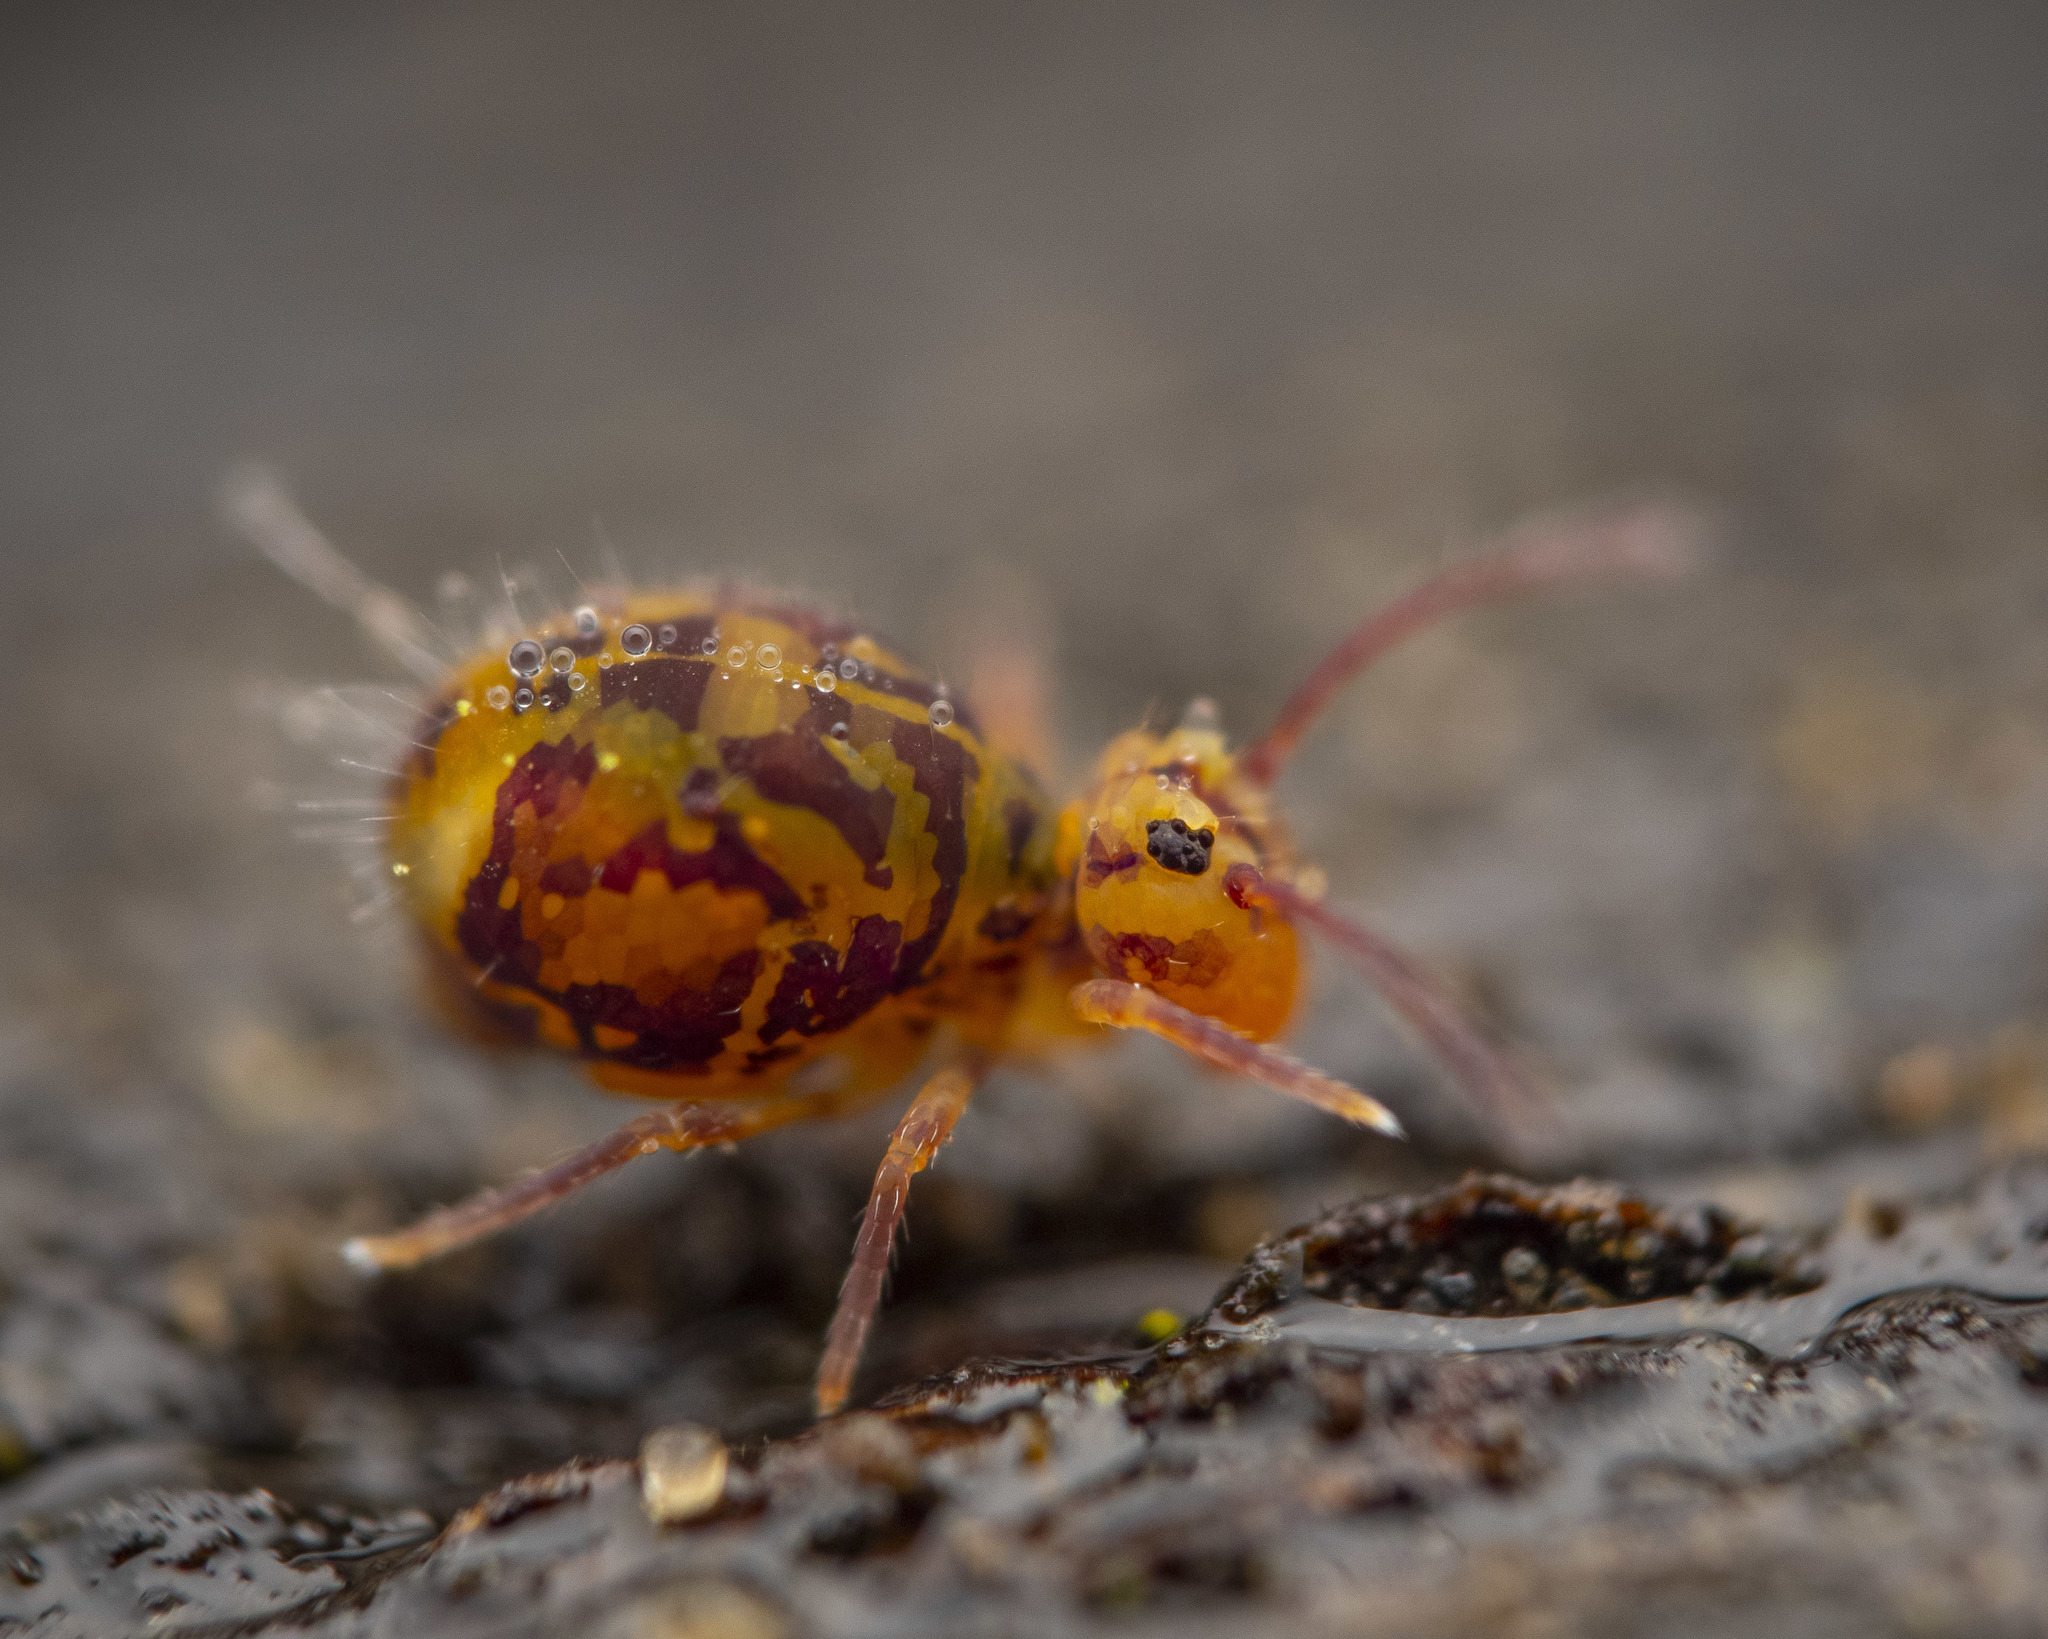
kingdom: Animalia
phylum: Arthropoda
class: Collembola
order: Symphypleona
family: Dicyrtomidae
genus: Dicyrtomina
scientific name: Dicyrtomina ornata
